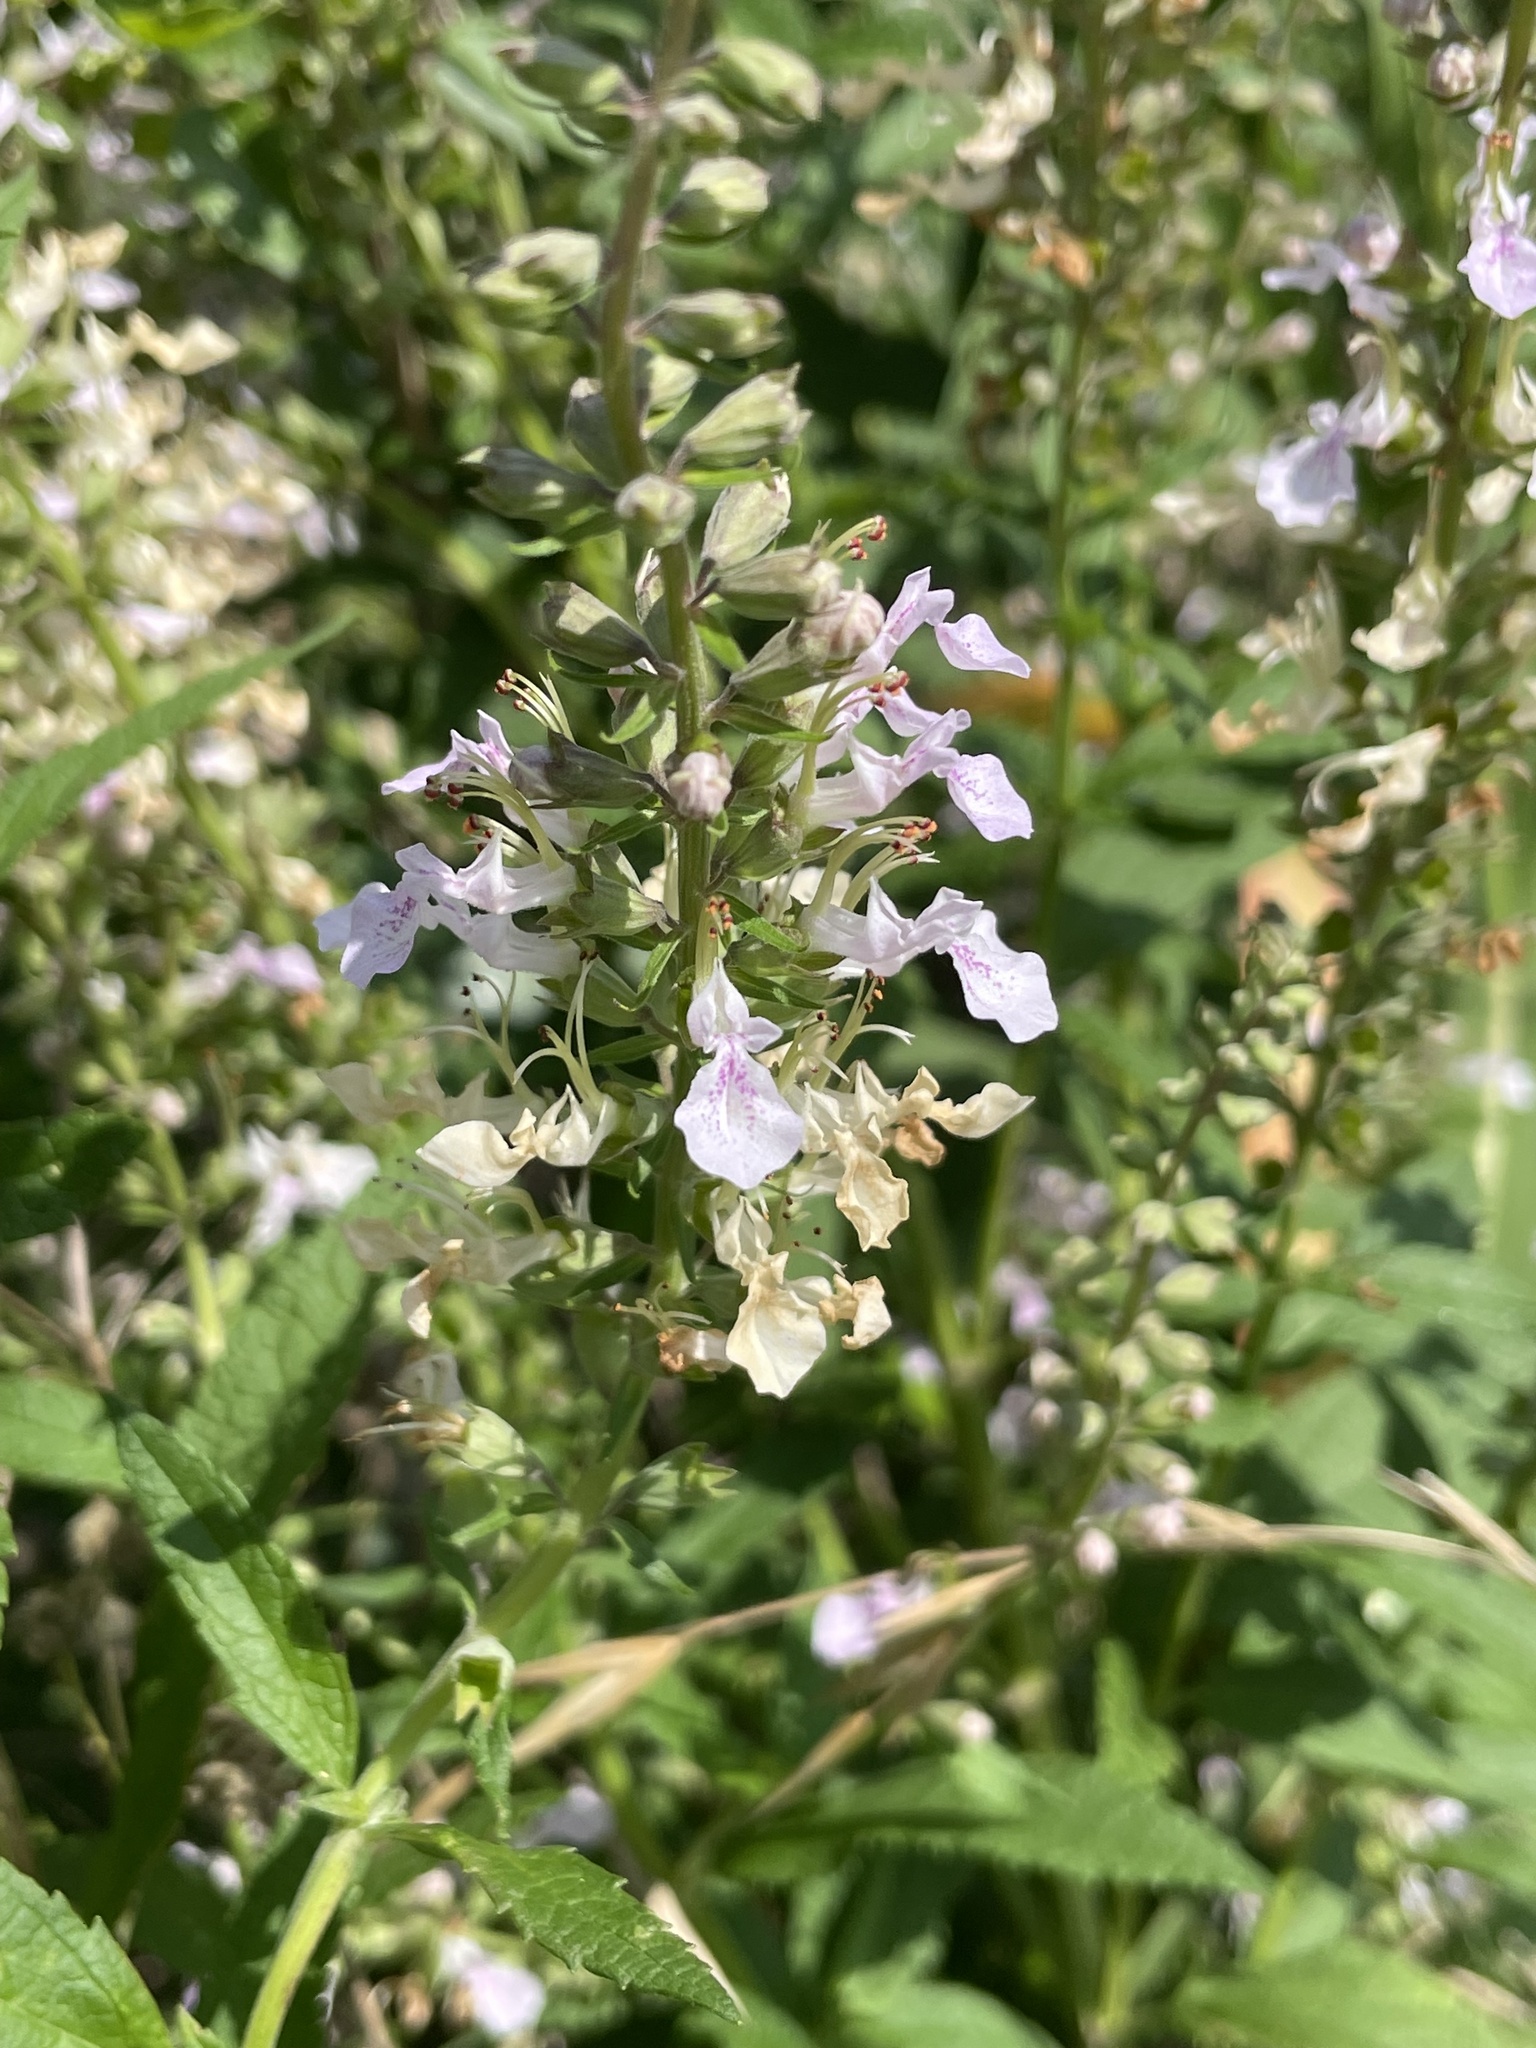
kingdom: Plantae
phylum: Tracheophyta
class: Magnoliopsida
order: Lamiales
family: Lamiaceae
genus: Teucrium
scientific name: Teucrium canadense
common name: American germander
